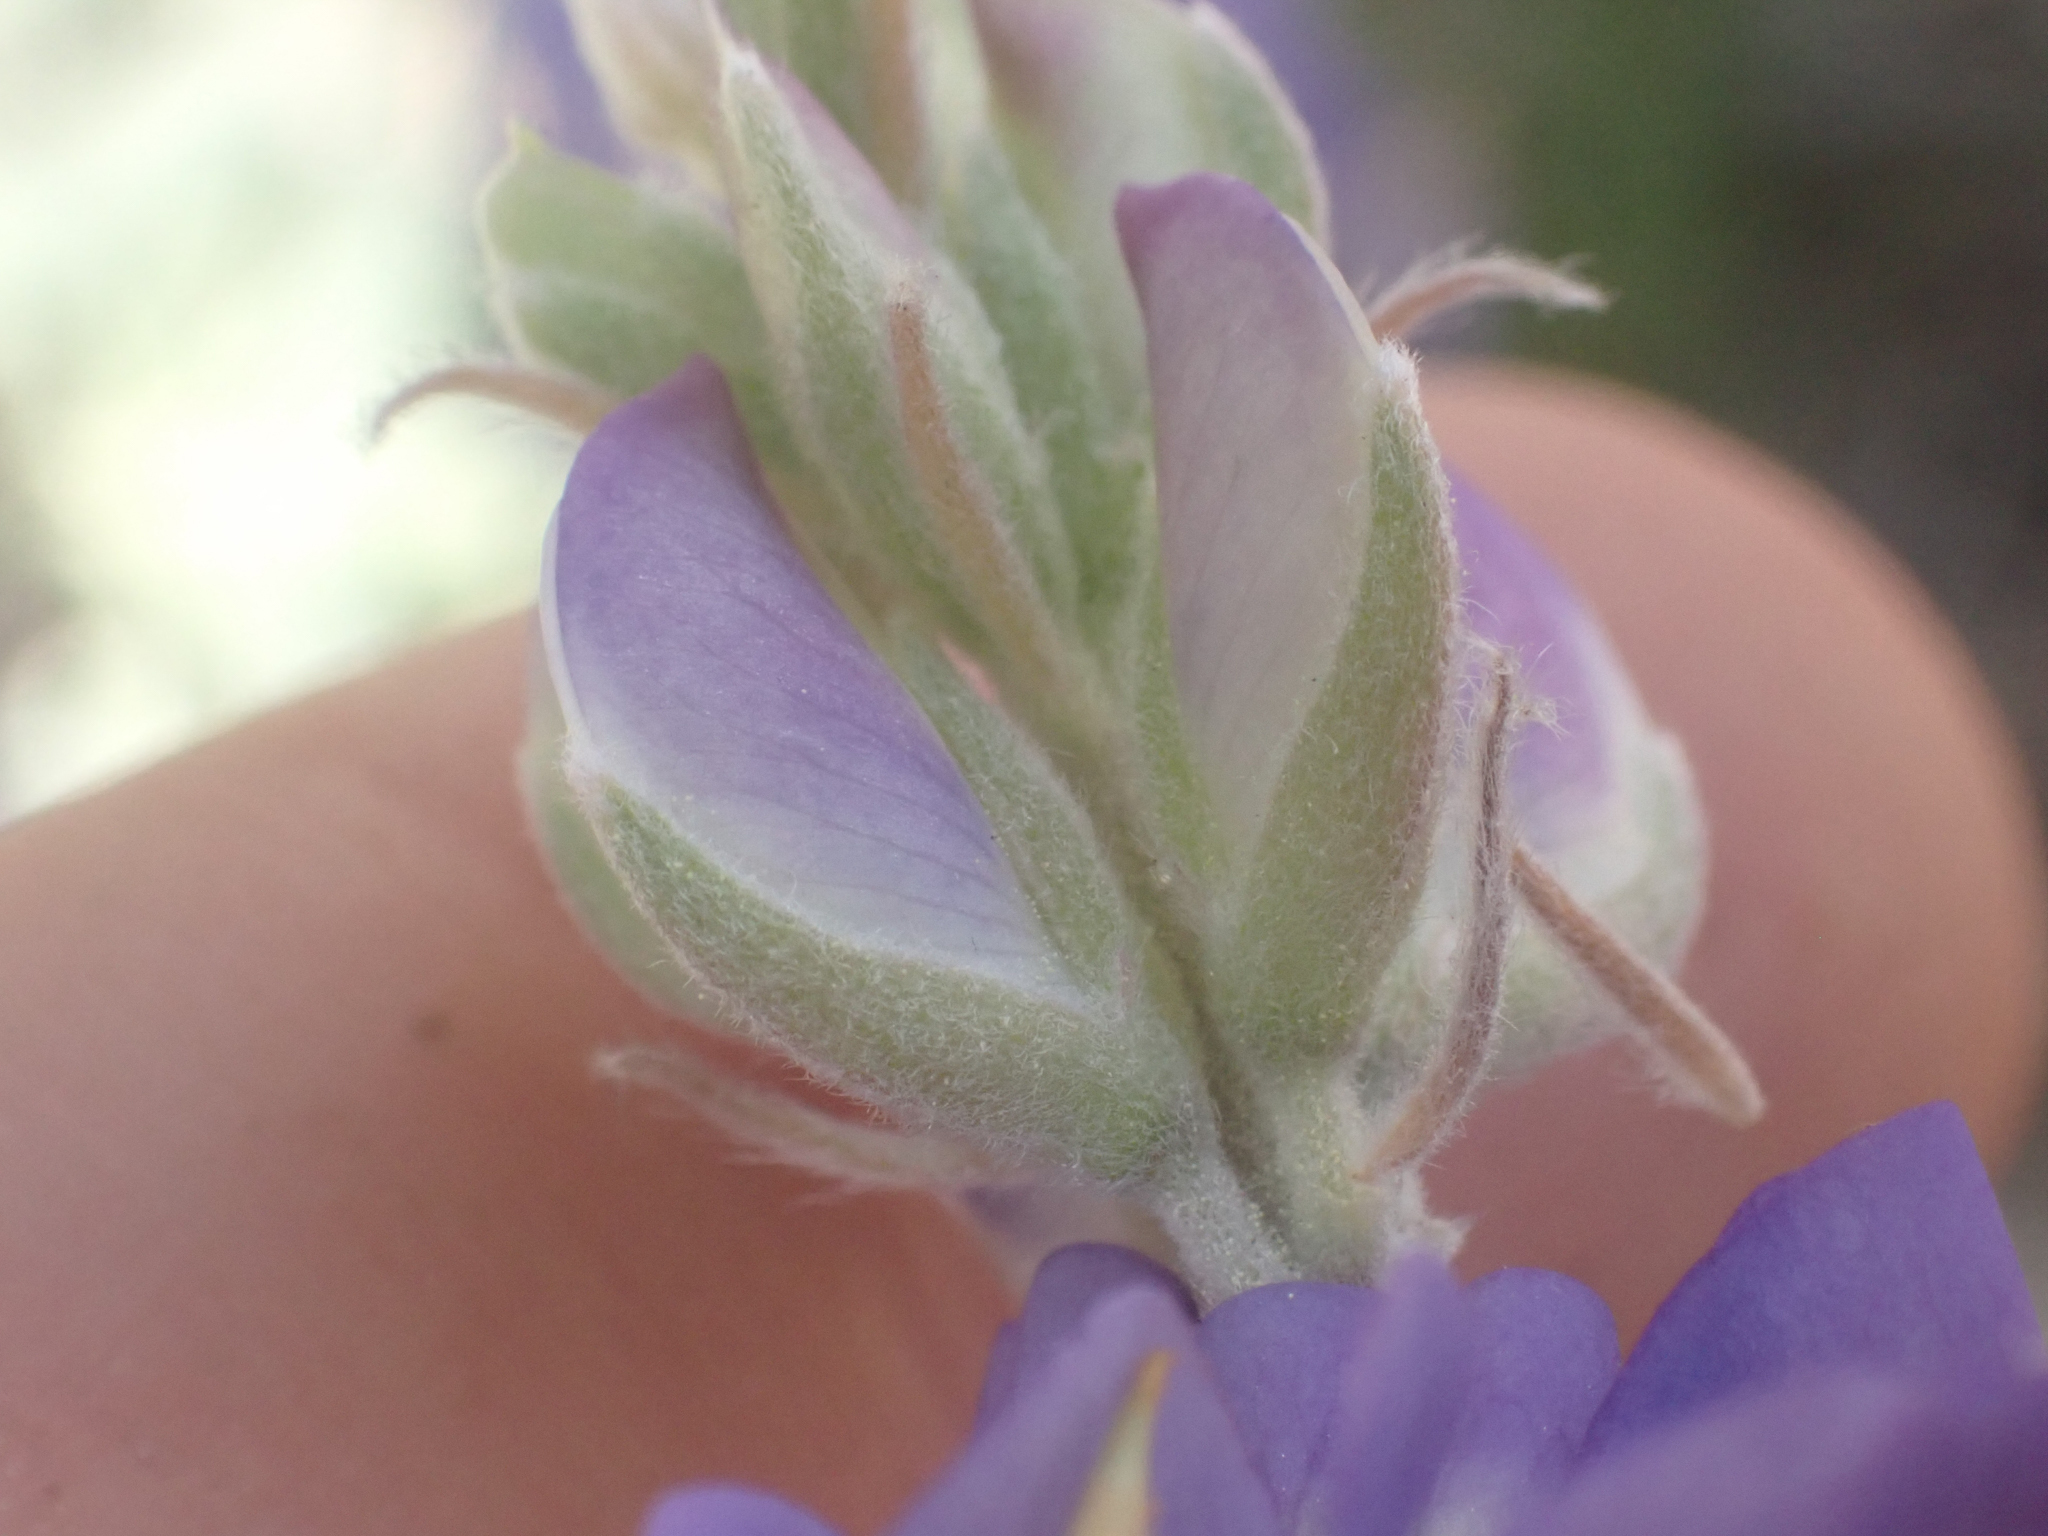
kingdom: Plantae
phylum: Tracheophyta
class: Magnoliopsida
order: Fabales
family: Fabaceae
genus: Lupinus
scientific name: Lupinus grayi
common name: Sierra lupine
